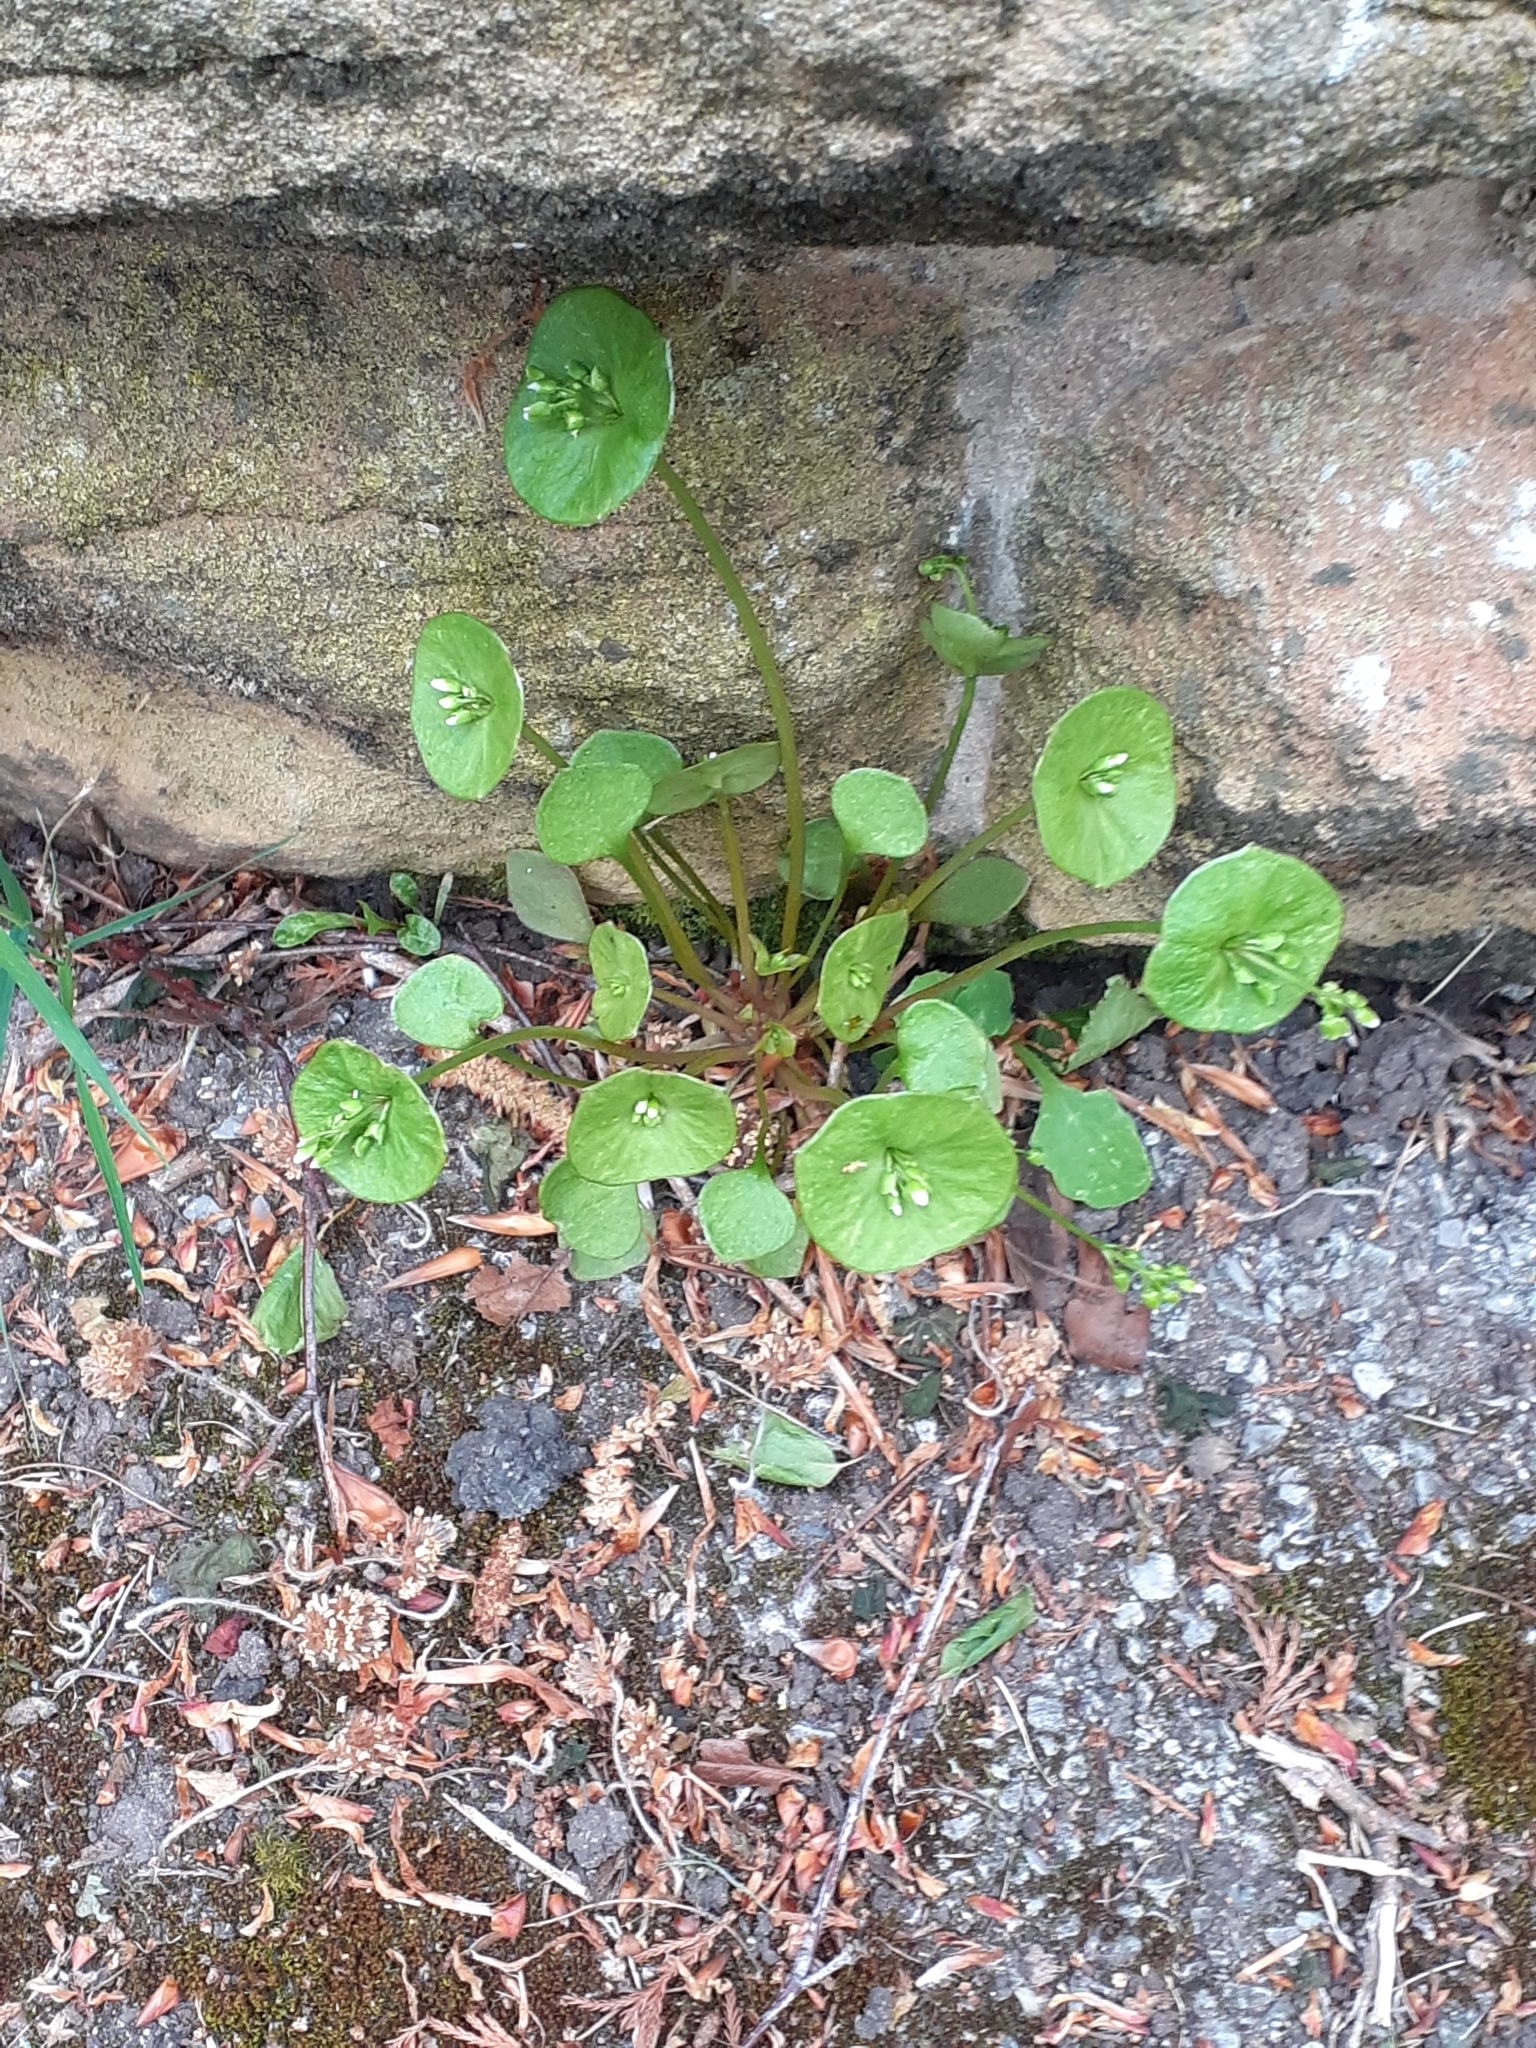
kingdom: Plantae
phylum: Tracheophyta
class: Magnoliopsida
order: Caryophyllales
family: Montiaceae
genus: Claytonia
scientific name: Claytonia perfoliata
